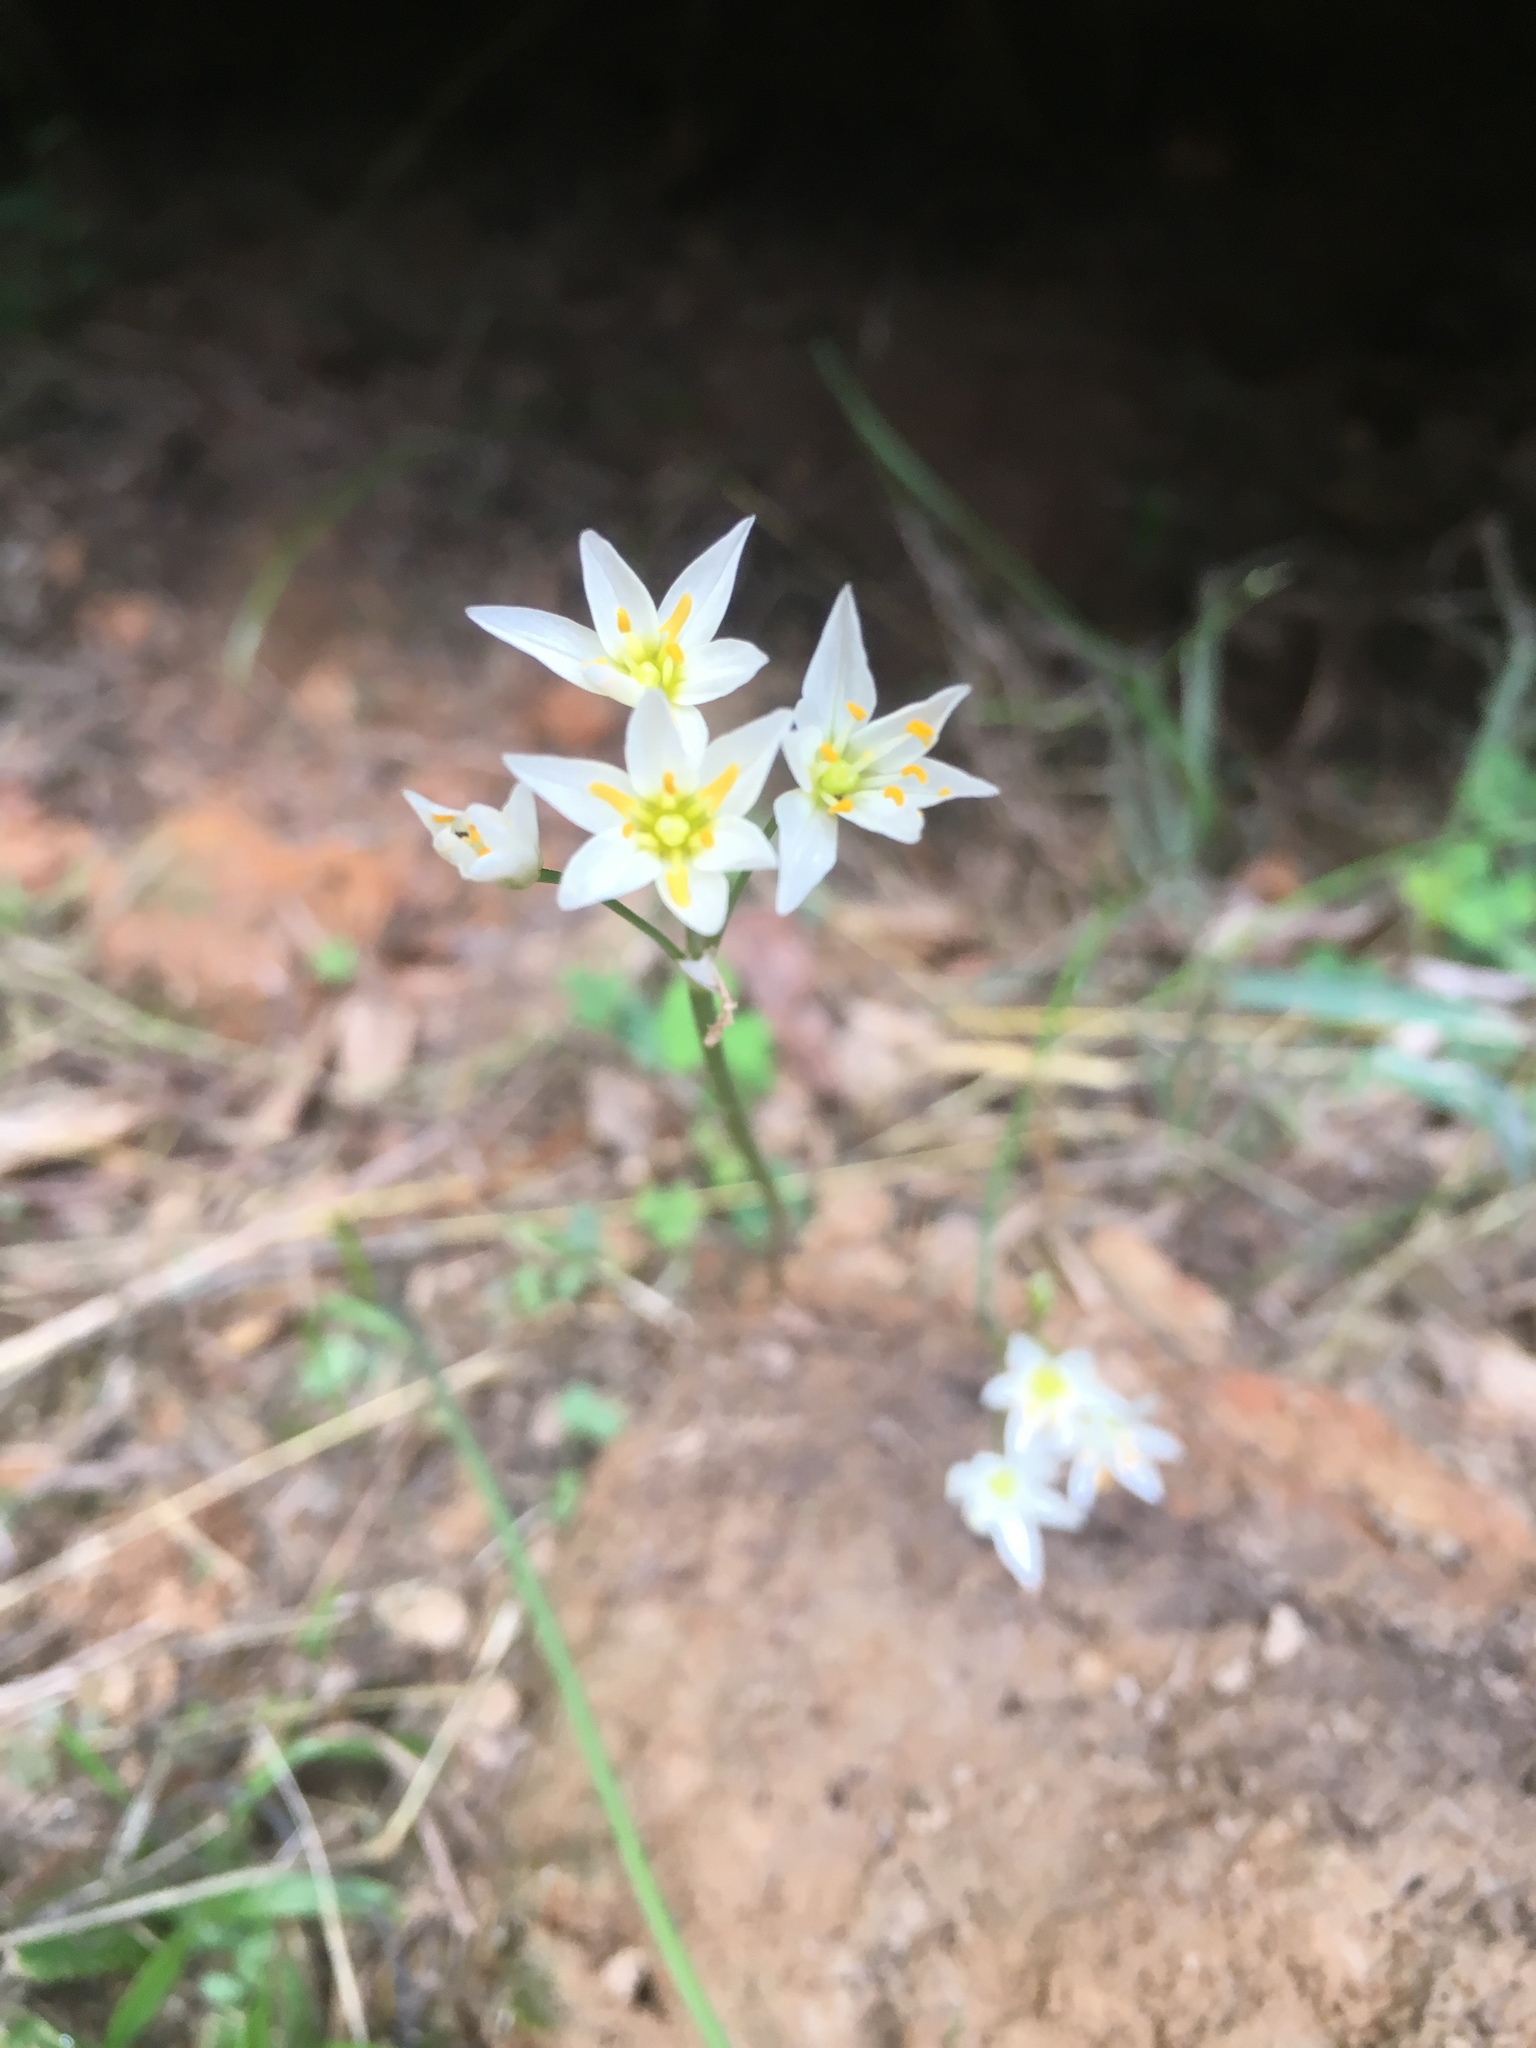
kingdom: Plantae
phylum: Tracheophyta
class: Liliopsida
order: Asparagales
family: Amaryllidaceae
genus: Nothoscordum
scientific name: Nothoscordum bivalve
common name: Crow-poison
